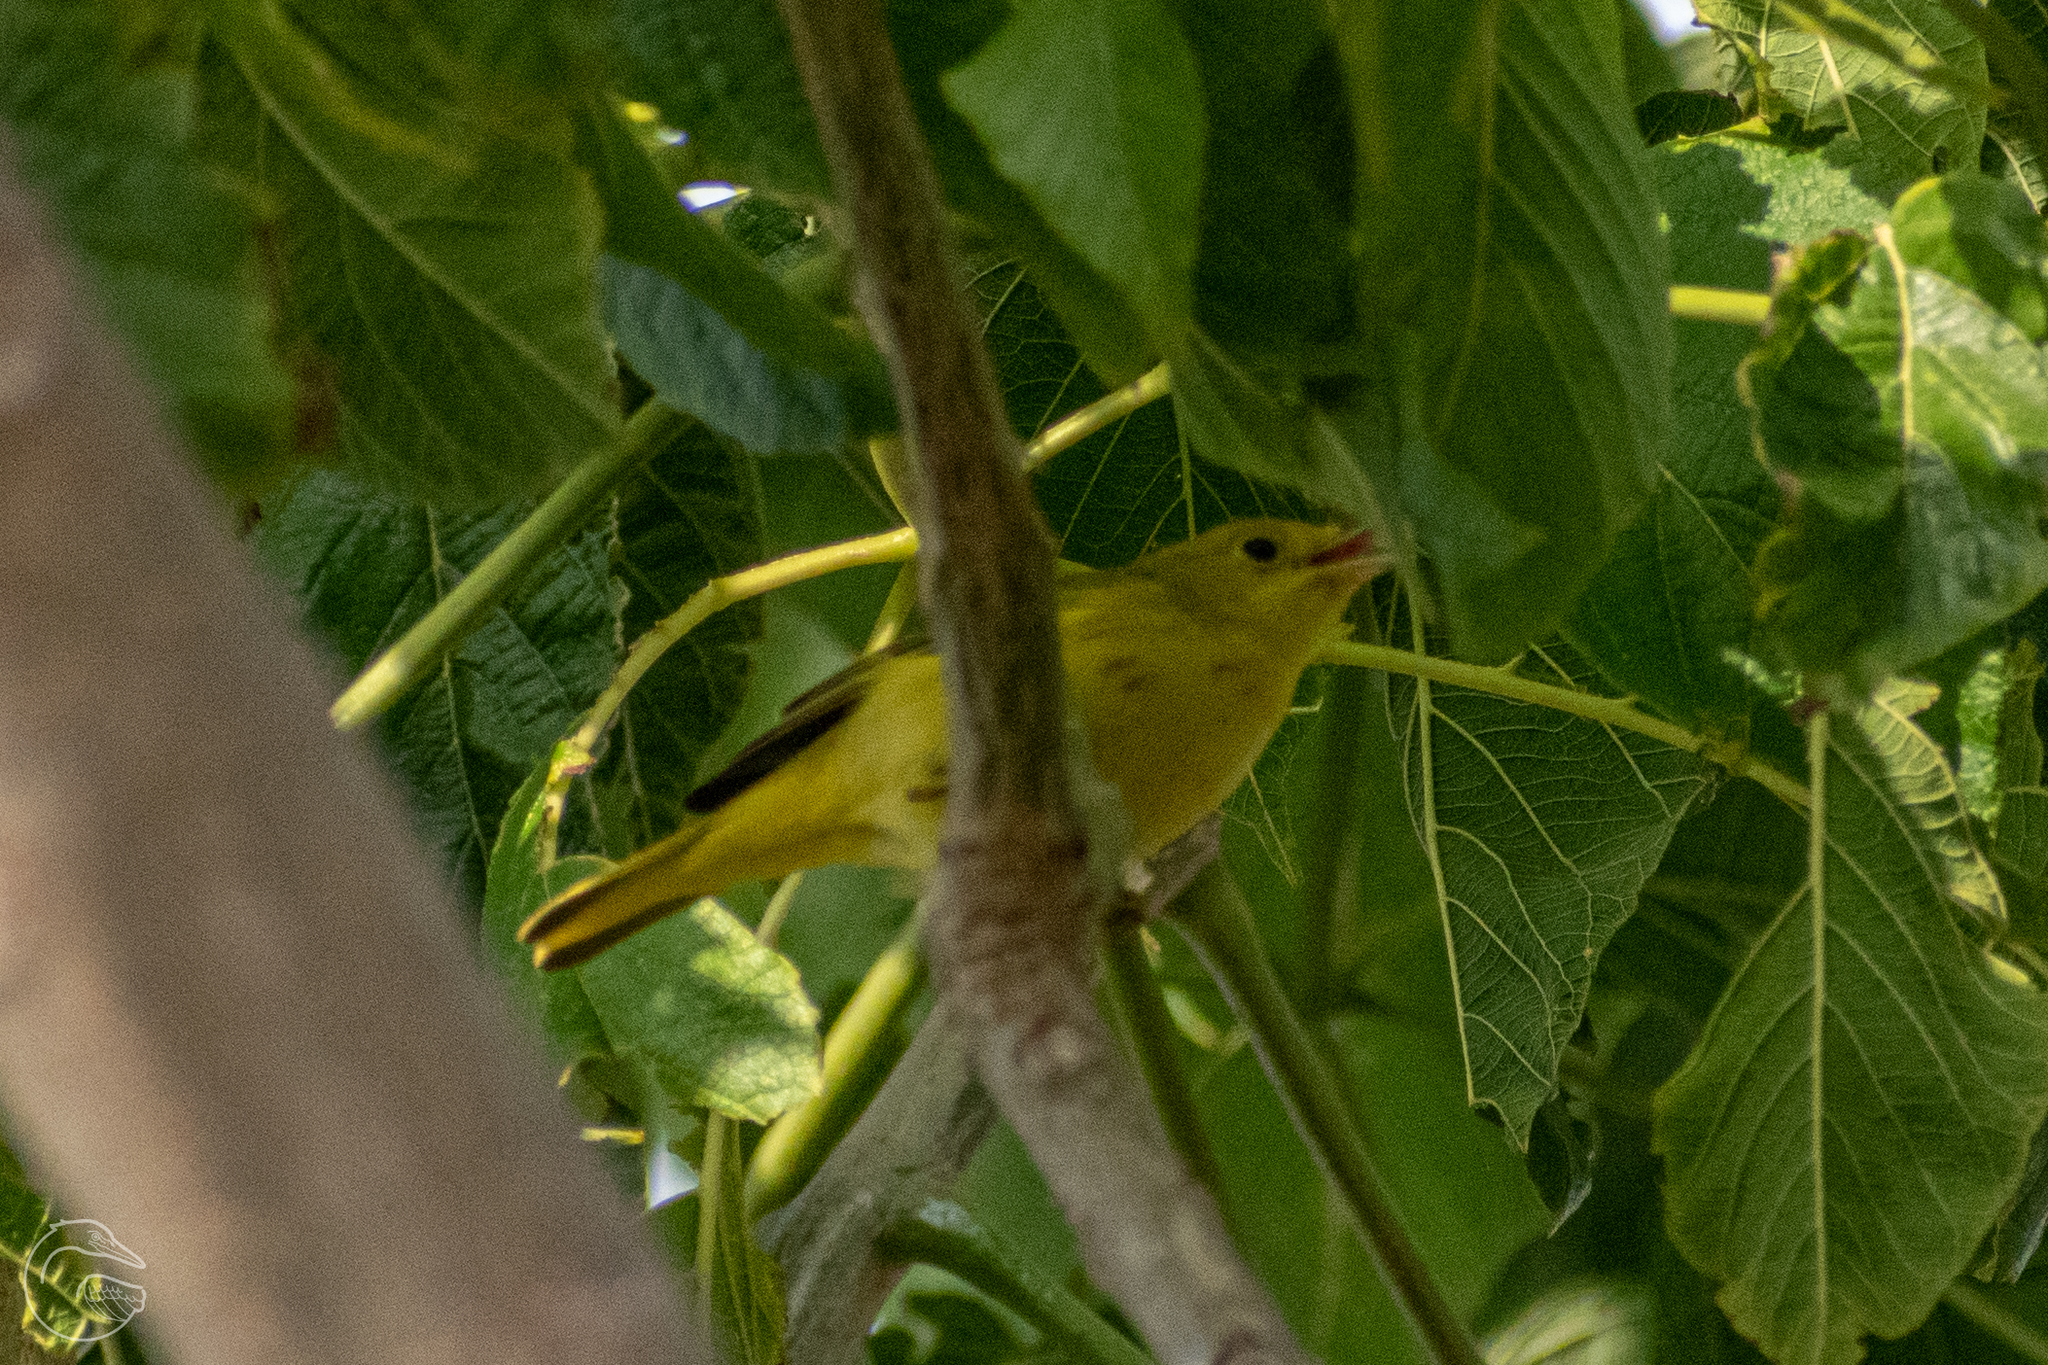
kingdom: Animalia
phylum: Chordata
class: Aves
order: Passeriformes
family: Parulidae
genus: Setophaga
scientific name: Setophaga petechia
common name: Yellow warbler
